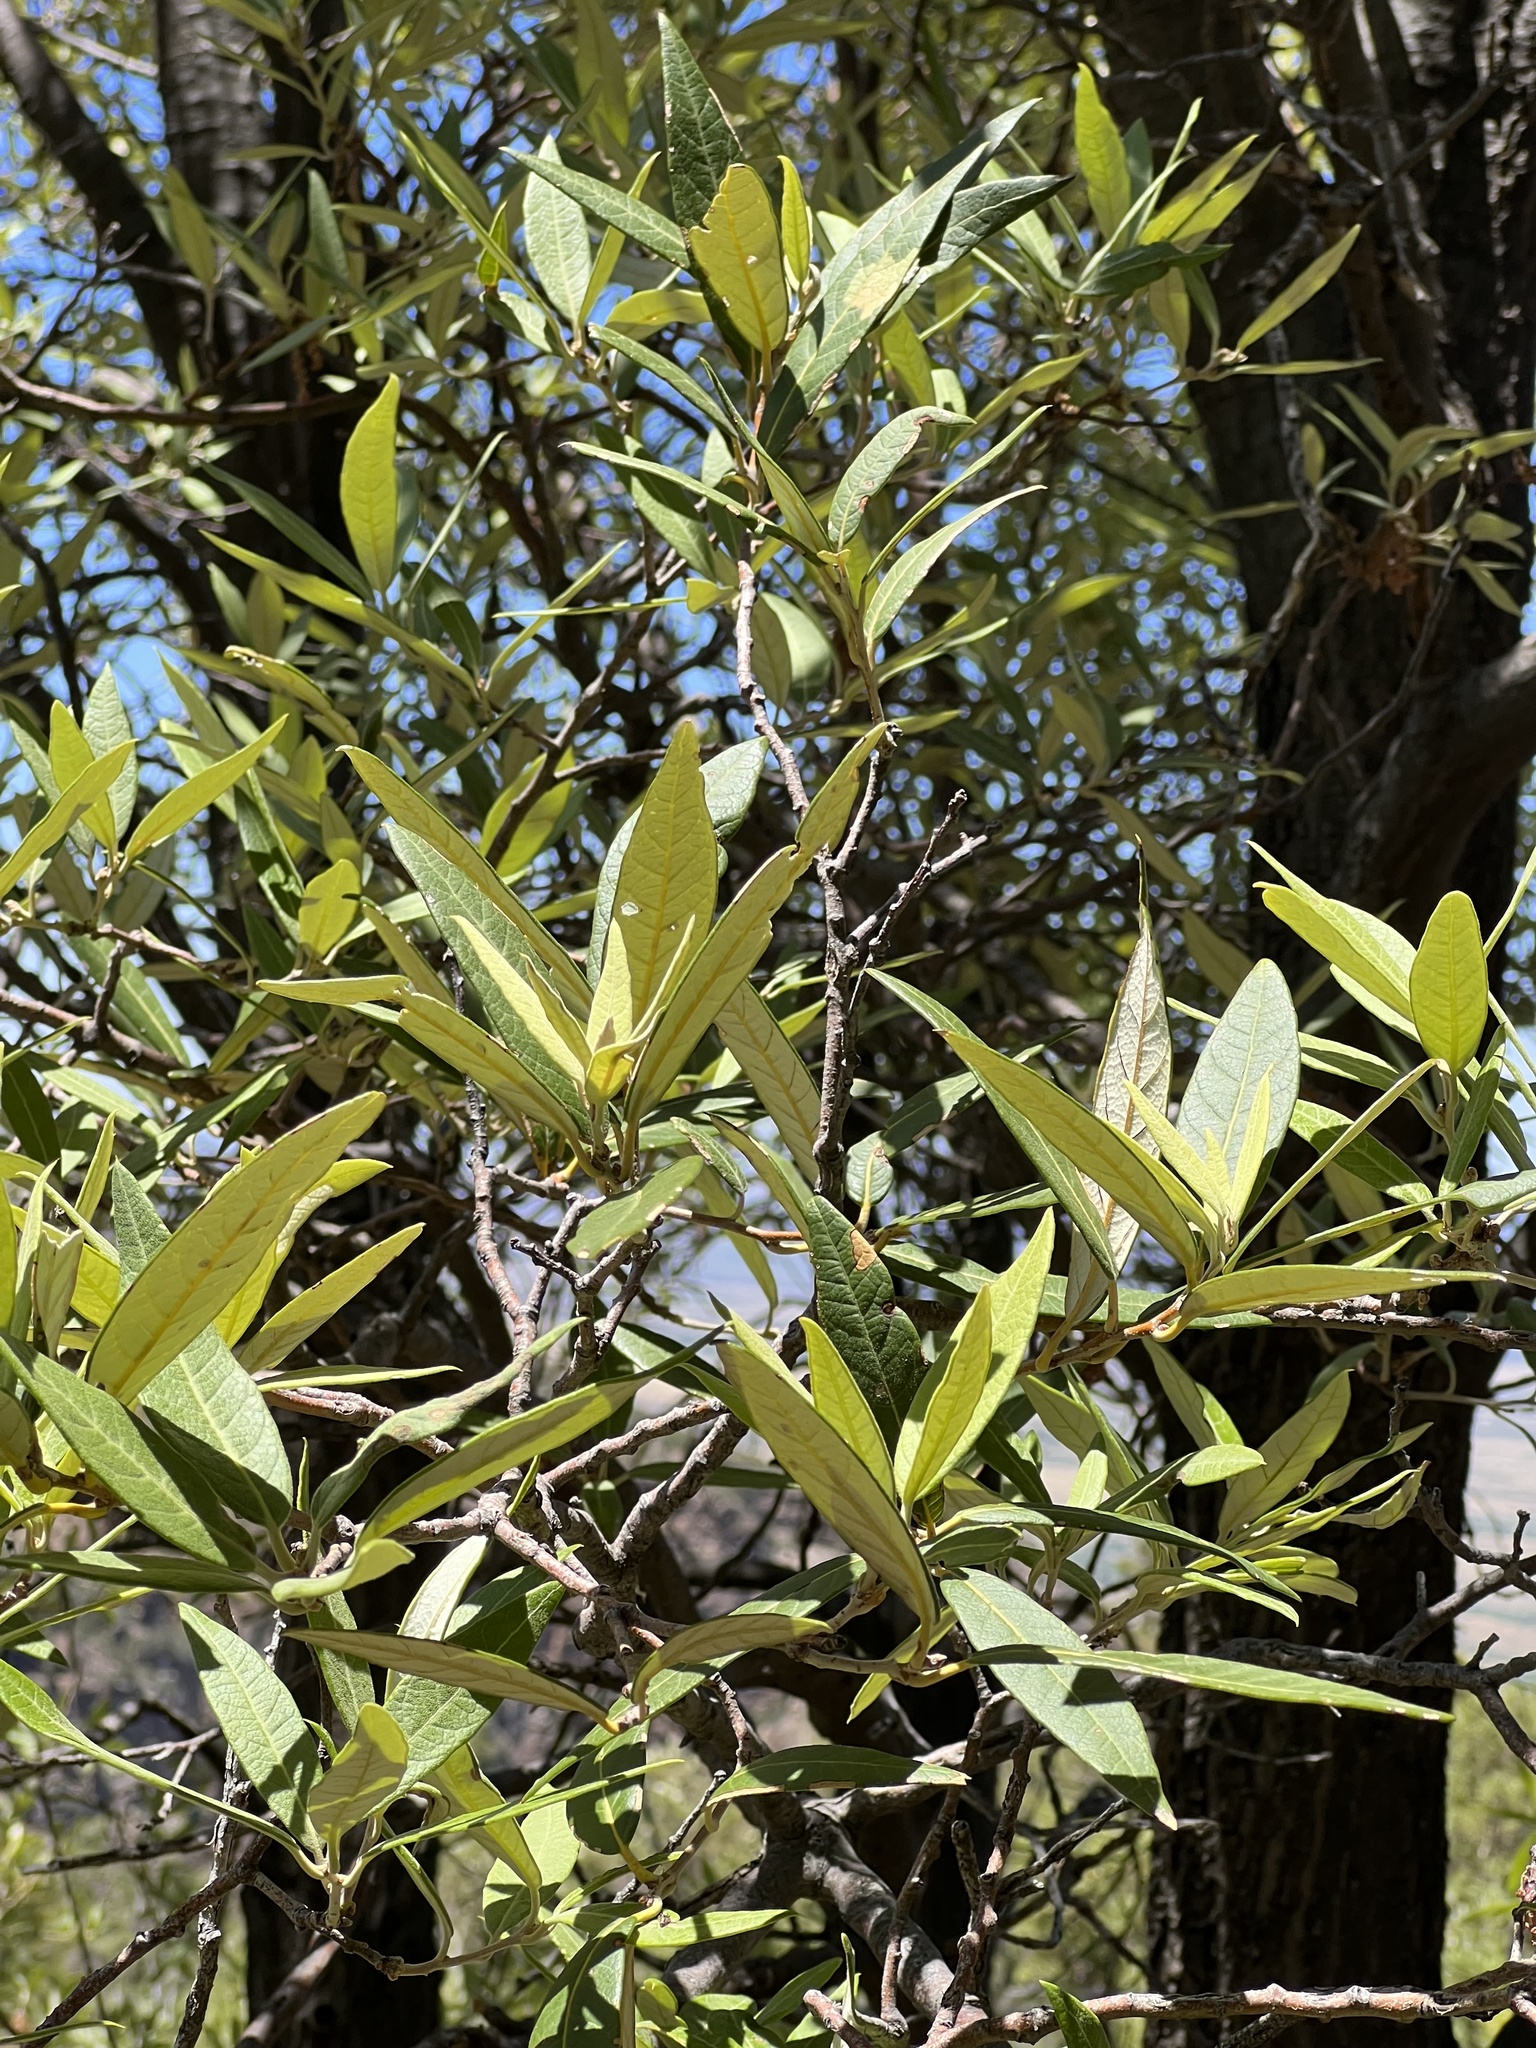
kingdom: Plantae
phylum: Tracheophyta
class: Magnoliopsida
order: Fagales
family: Fagaceae
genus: Quercus
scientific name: Quercus hypoleucoides
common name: Silverleaf oak
